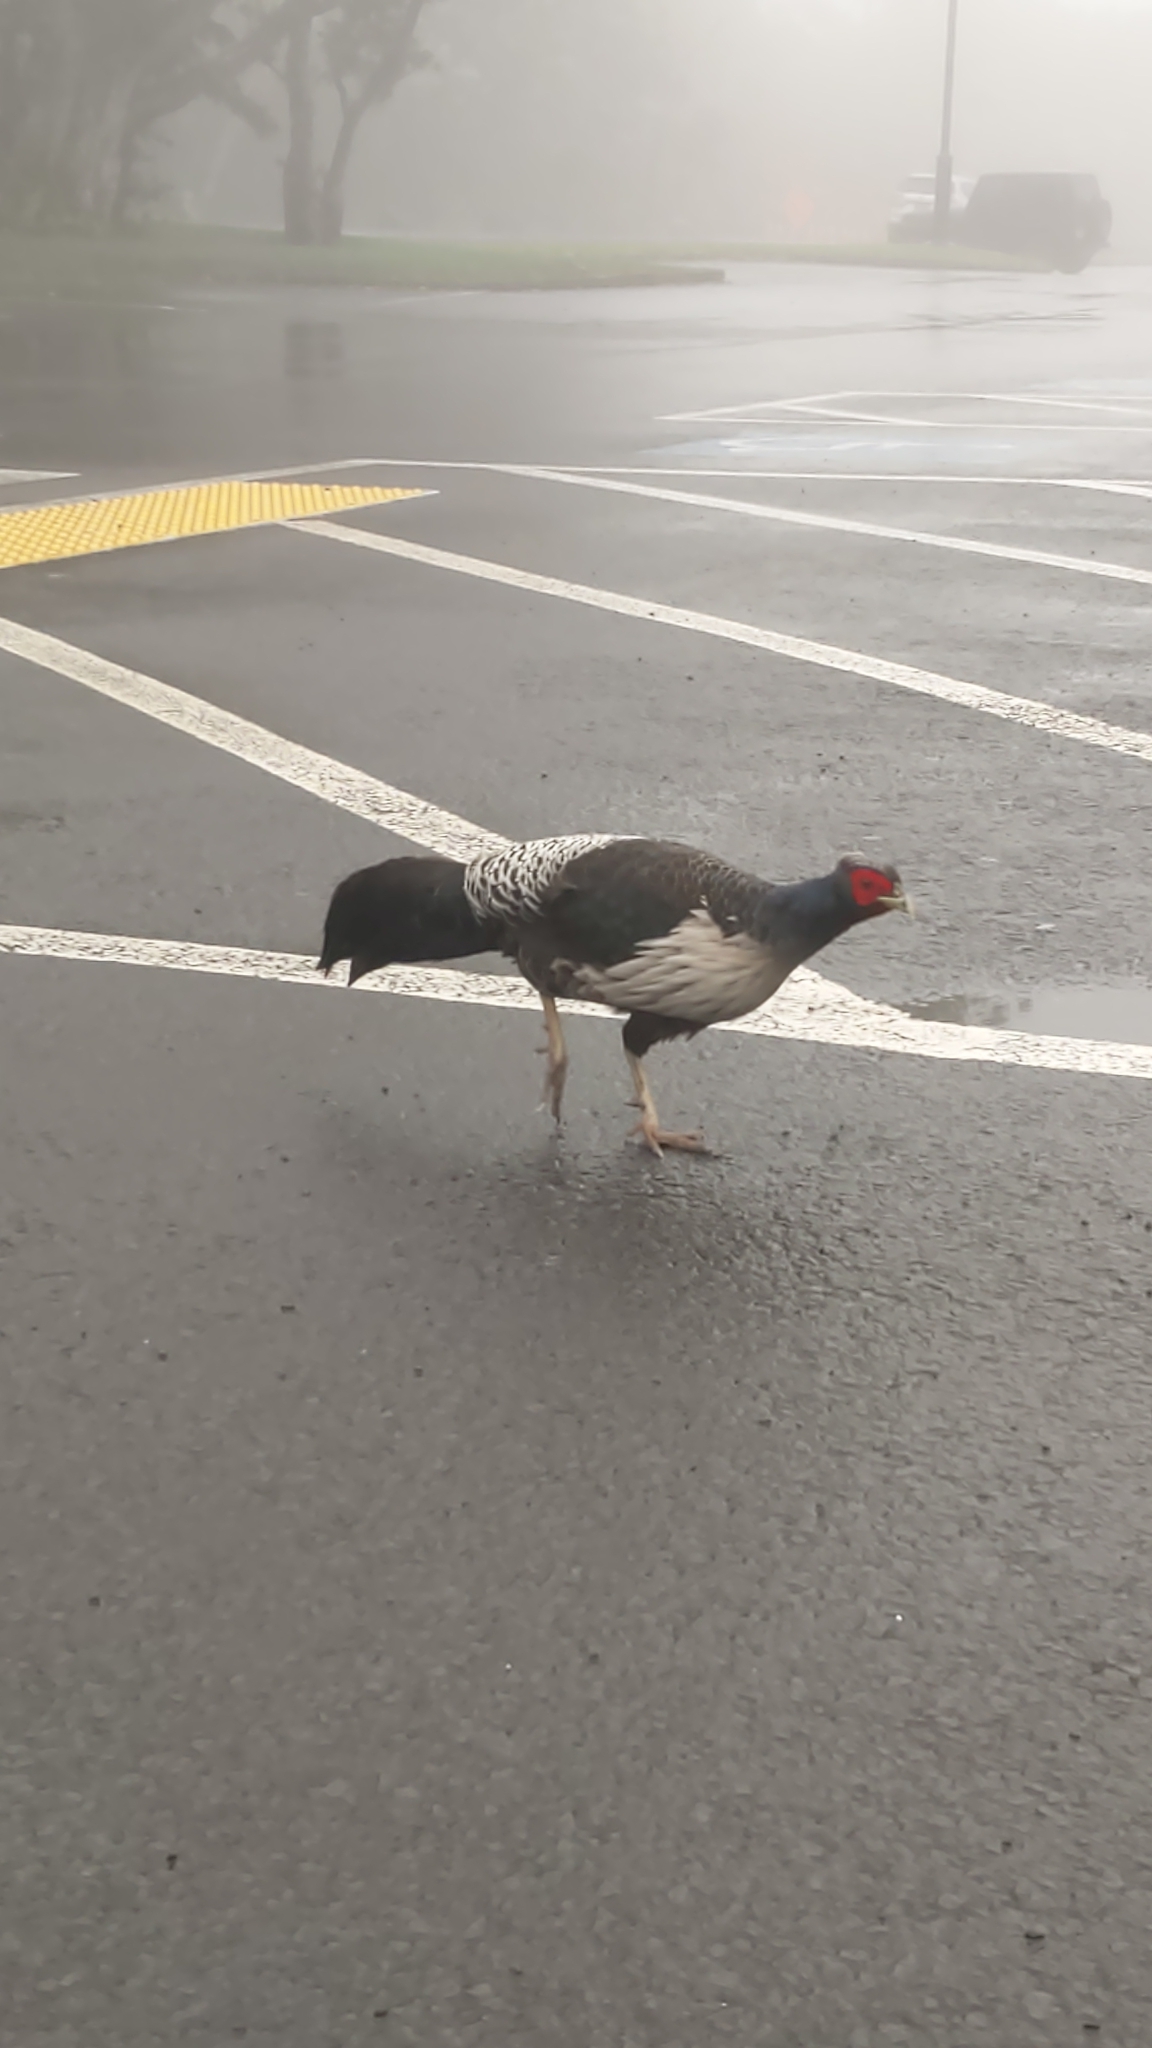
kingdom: Animalia
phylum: Chordata
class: Aves
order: Galliformes
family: Phasianidae
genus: Lophura
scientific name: Lophura leucomelanos
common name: Kalij pheasant
